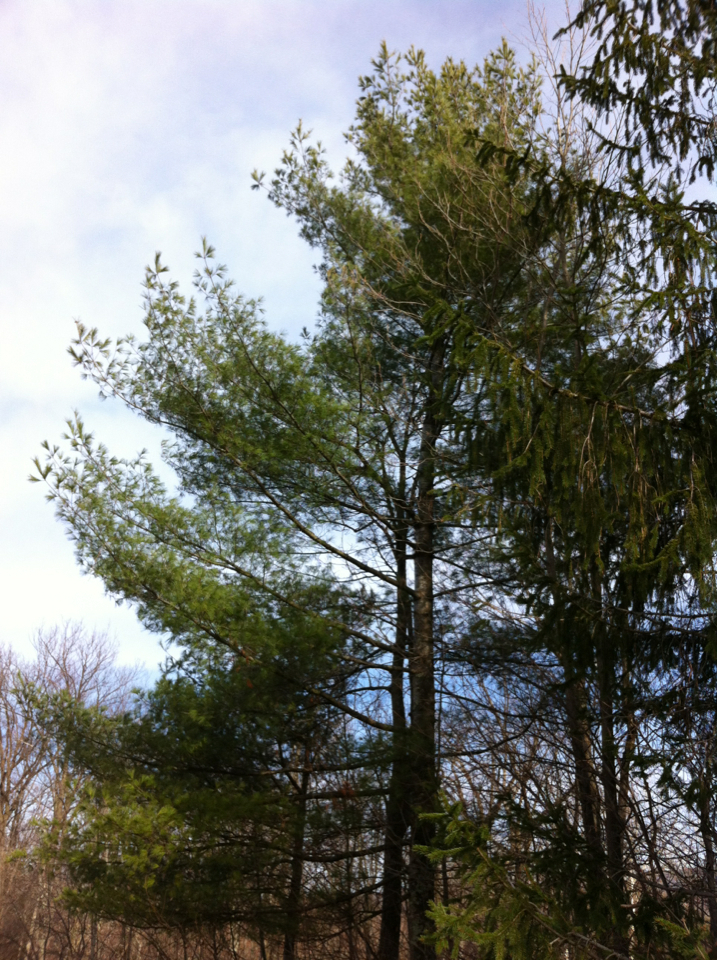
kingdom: Plantae
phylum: Tracheophyta
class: Pinopsida
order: Pinales
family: Pinaceae
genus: Pinus
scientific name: Pinus strobus
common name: Weymouth pine
